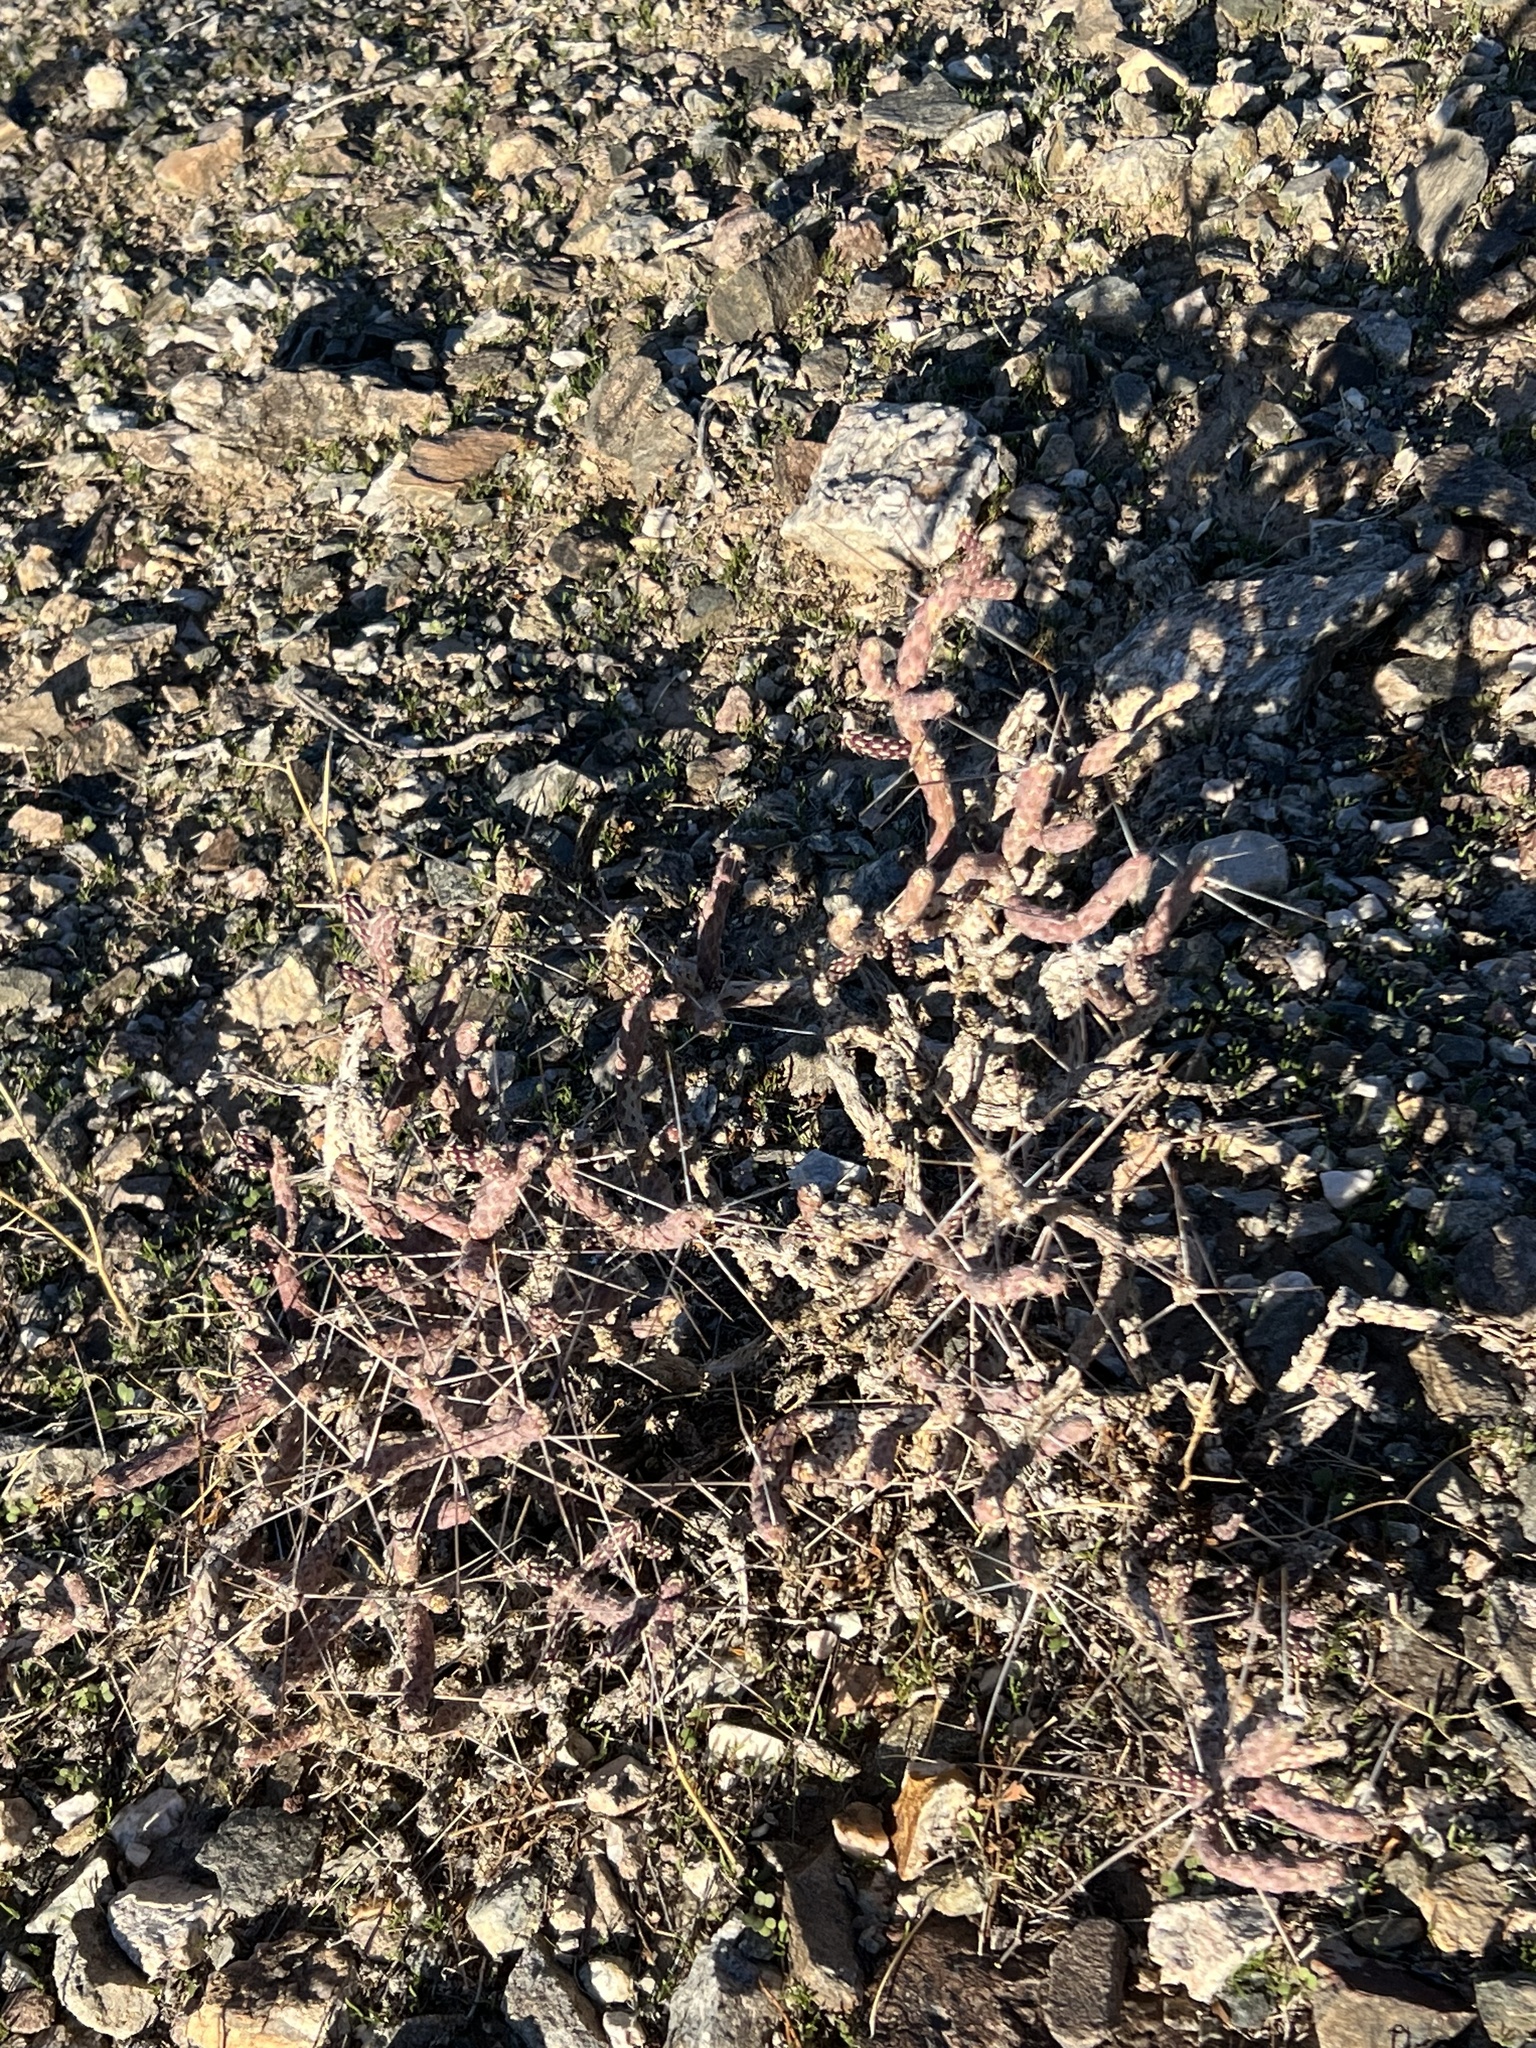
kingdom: Plantae
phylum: Tracheophyta
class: Magnoliopsida
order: Caryophyllales
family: Cactaceae
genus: Cylindropuntia
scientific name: Cylindropuntia ramosissima
